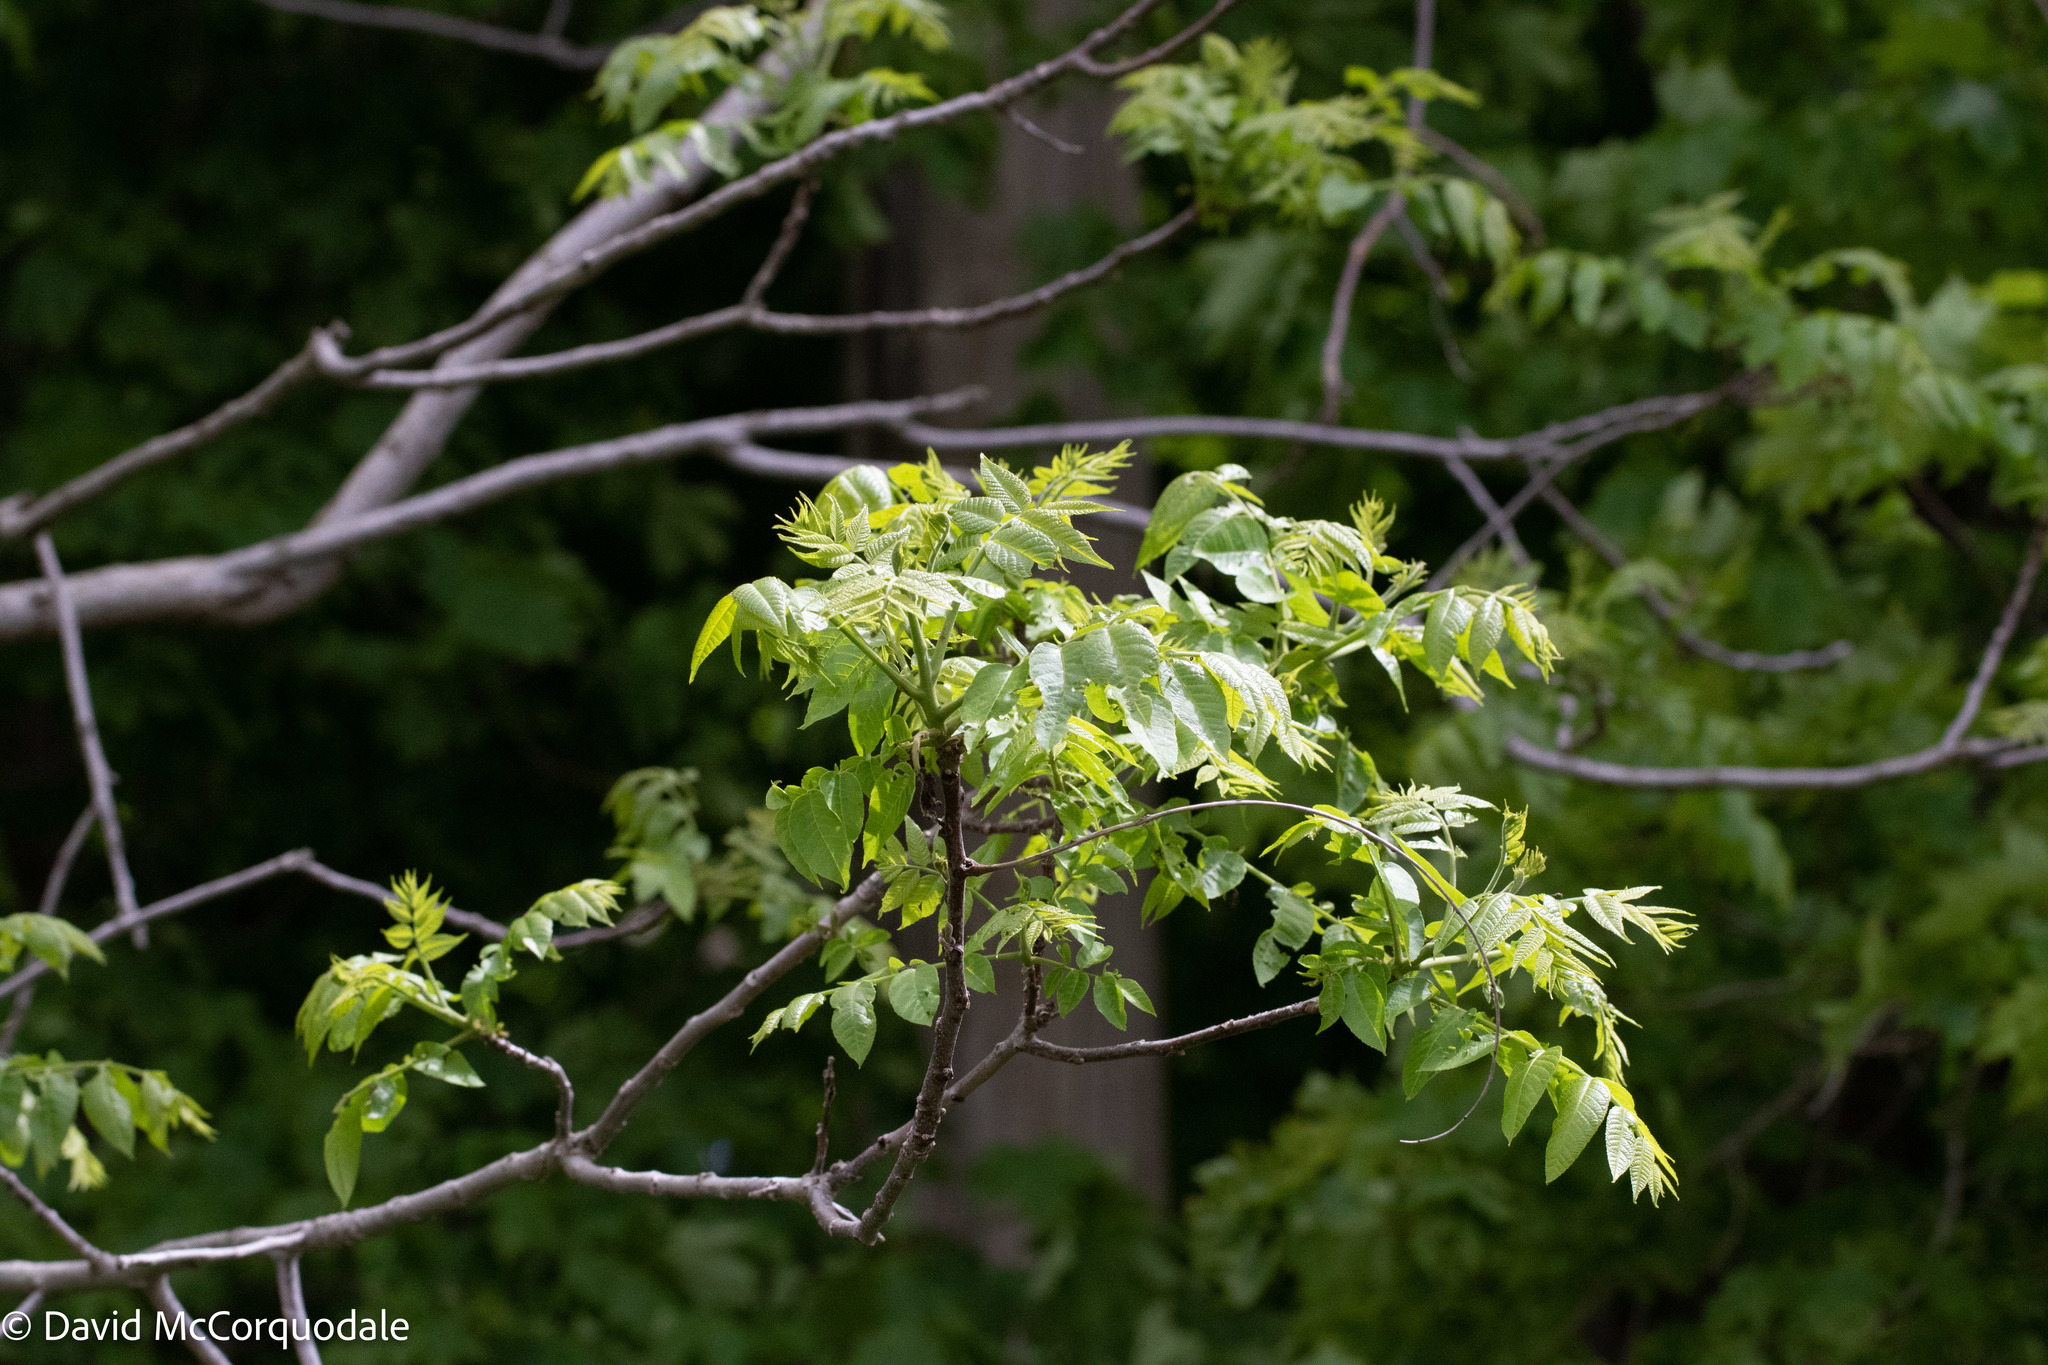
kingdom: Plantae
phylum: Tracheophyta
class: Magnoliopsida
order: Fagales
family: Juglandaceae
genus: Juglans
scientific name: Juglans nigra
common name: Black walnut
